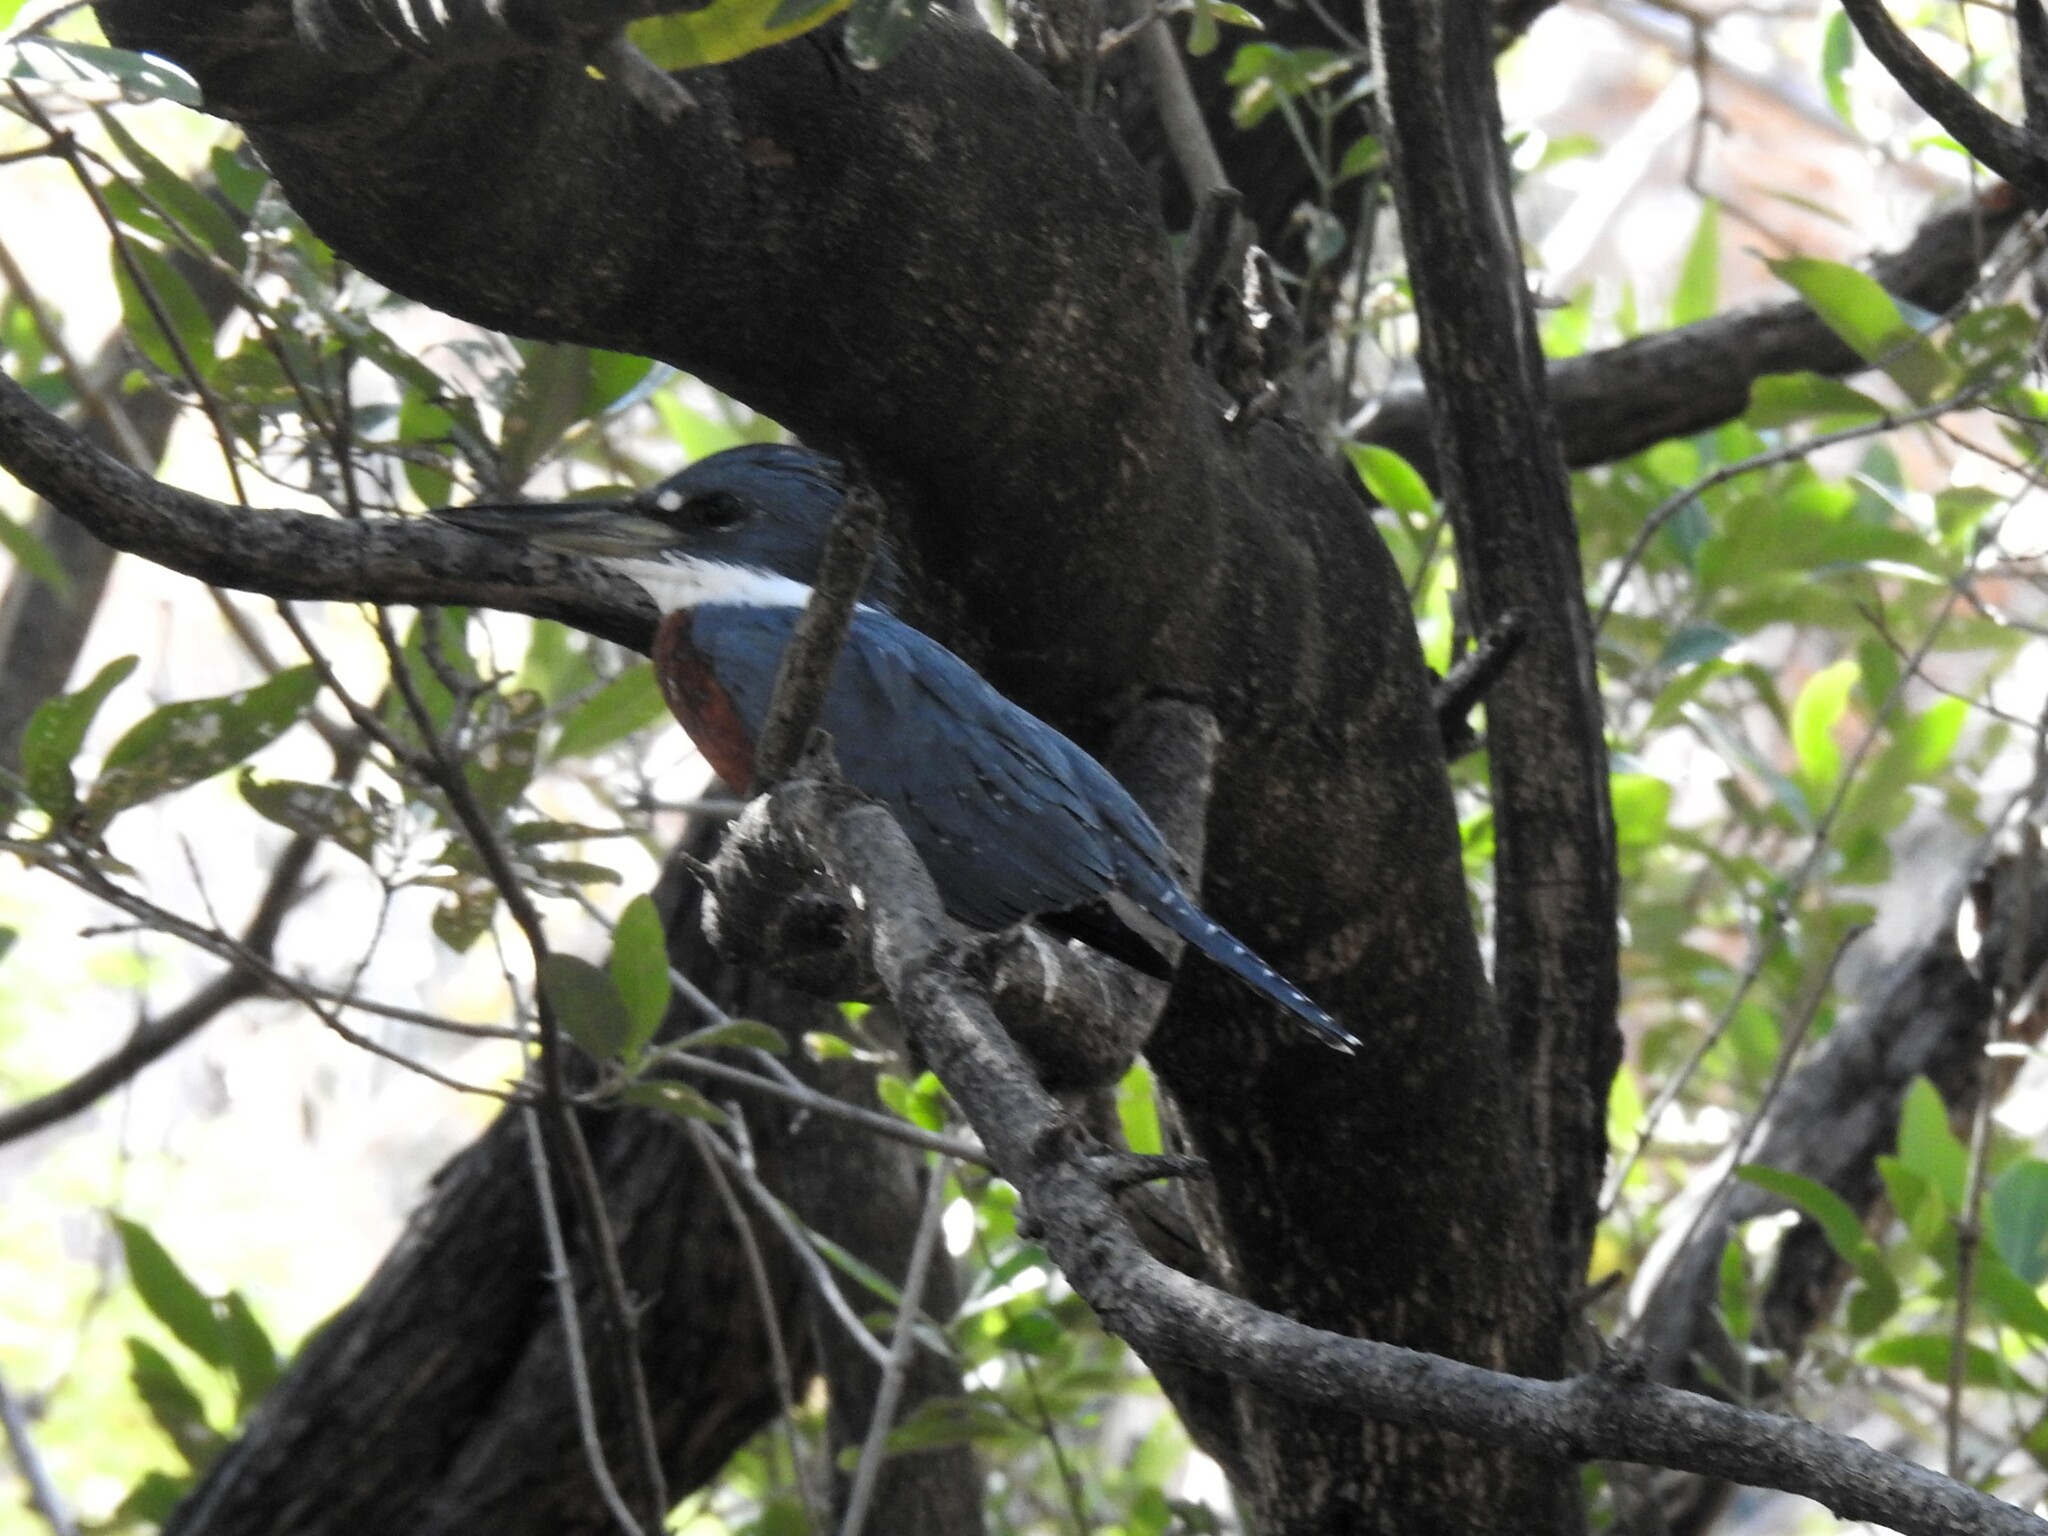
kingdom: Animalia
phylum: Chordata
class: Aves
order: Coraciiformes
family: Alcedinidae
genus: Megaceryle
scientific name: Megaceryle torquata
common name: Ringed kingfisher
